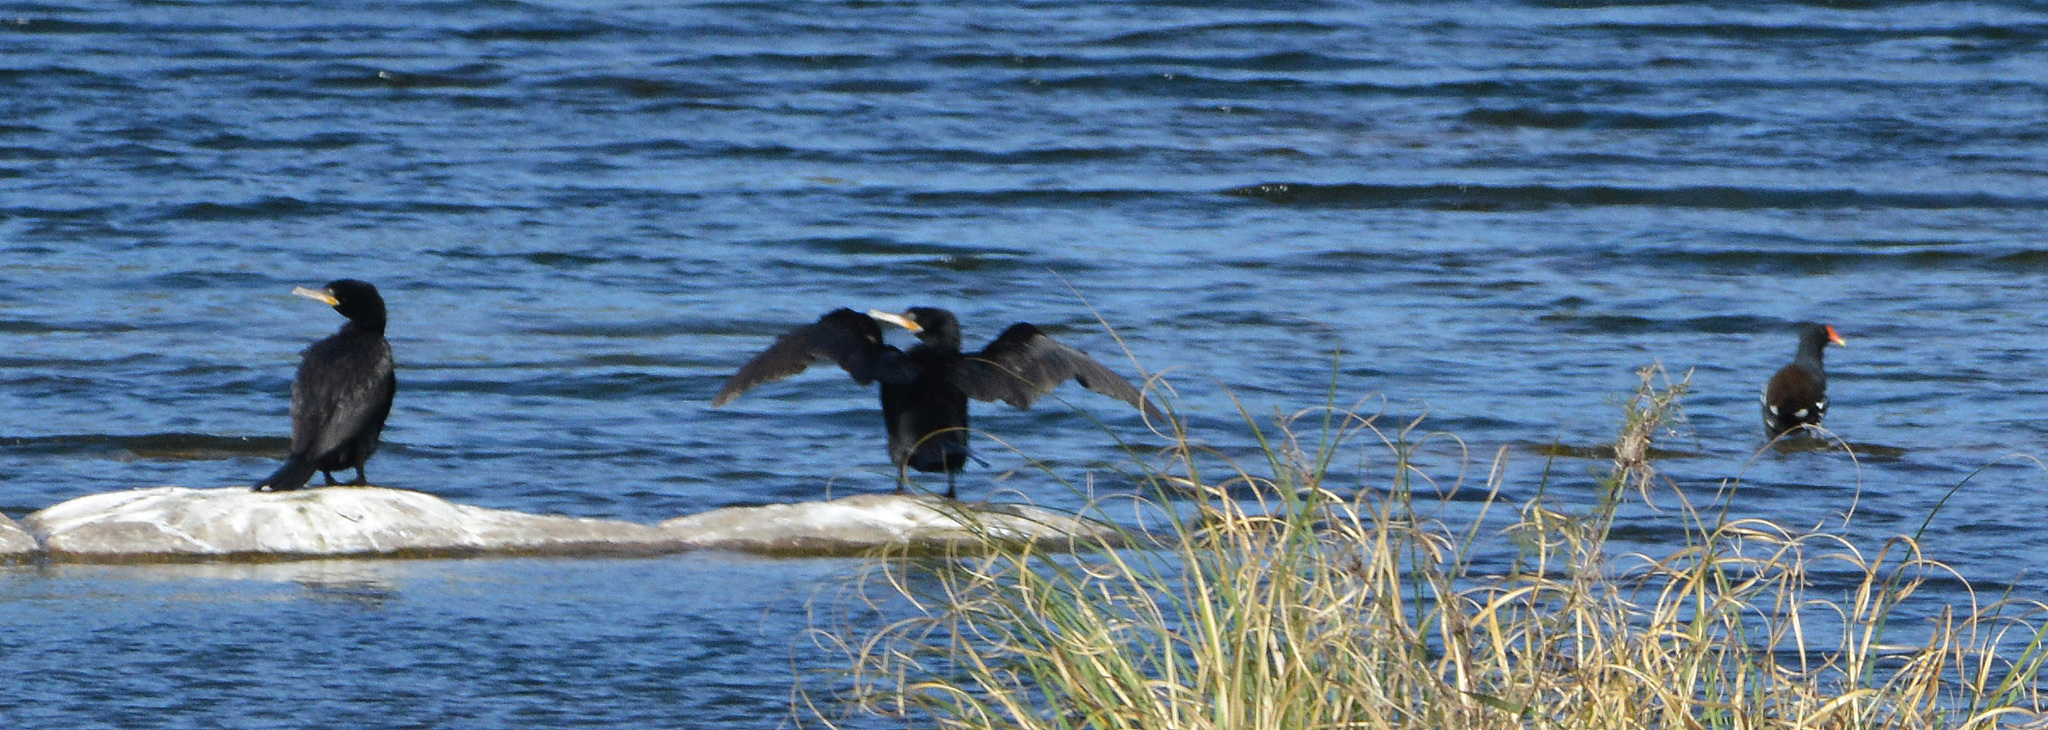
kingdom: Animalia
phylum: Chordata
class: Aves
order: Suliformes
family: Phalacrocoracidae
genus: Phalacrocorax
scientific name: Phalacrocorax brasilianus
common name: Neotropic cormorant
